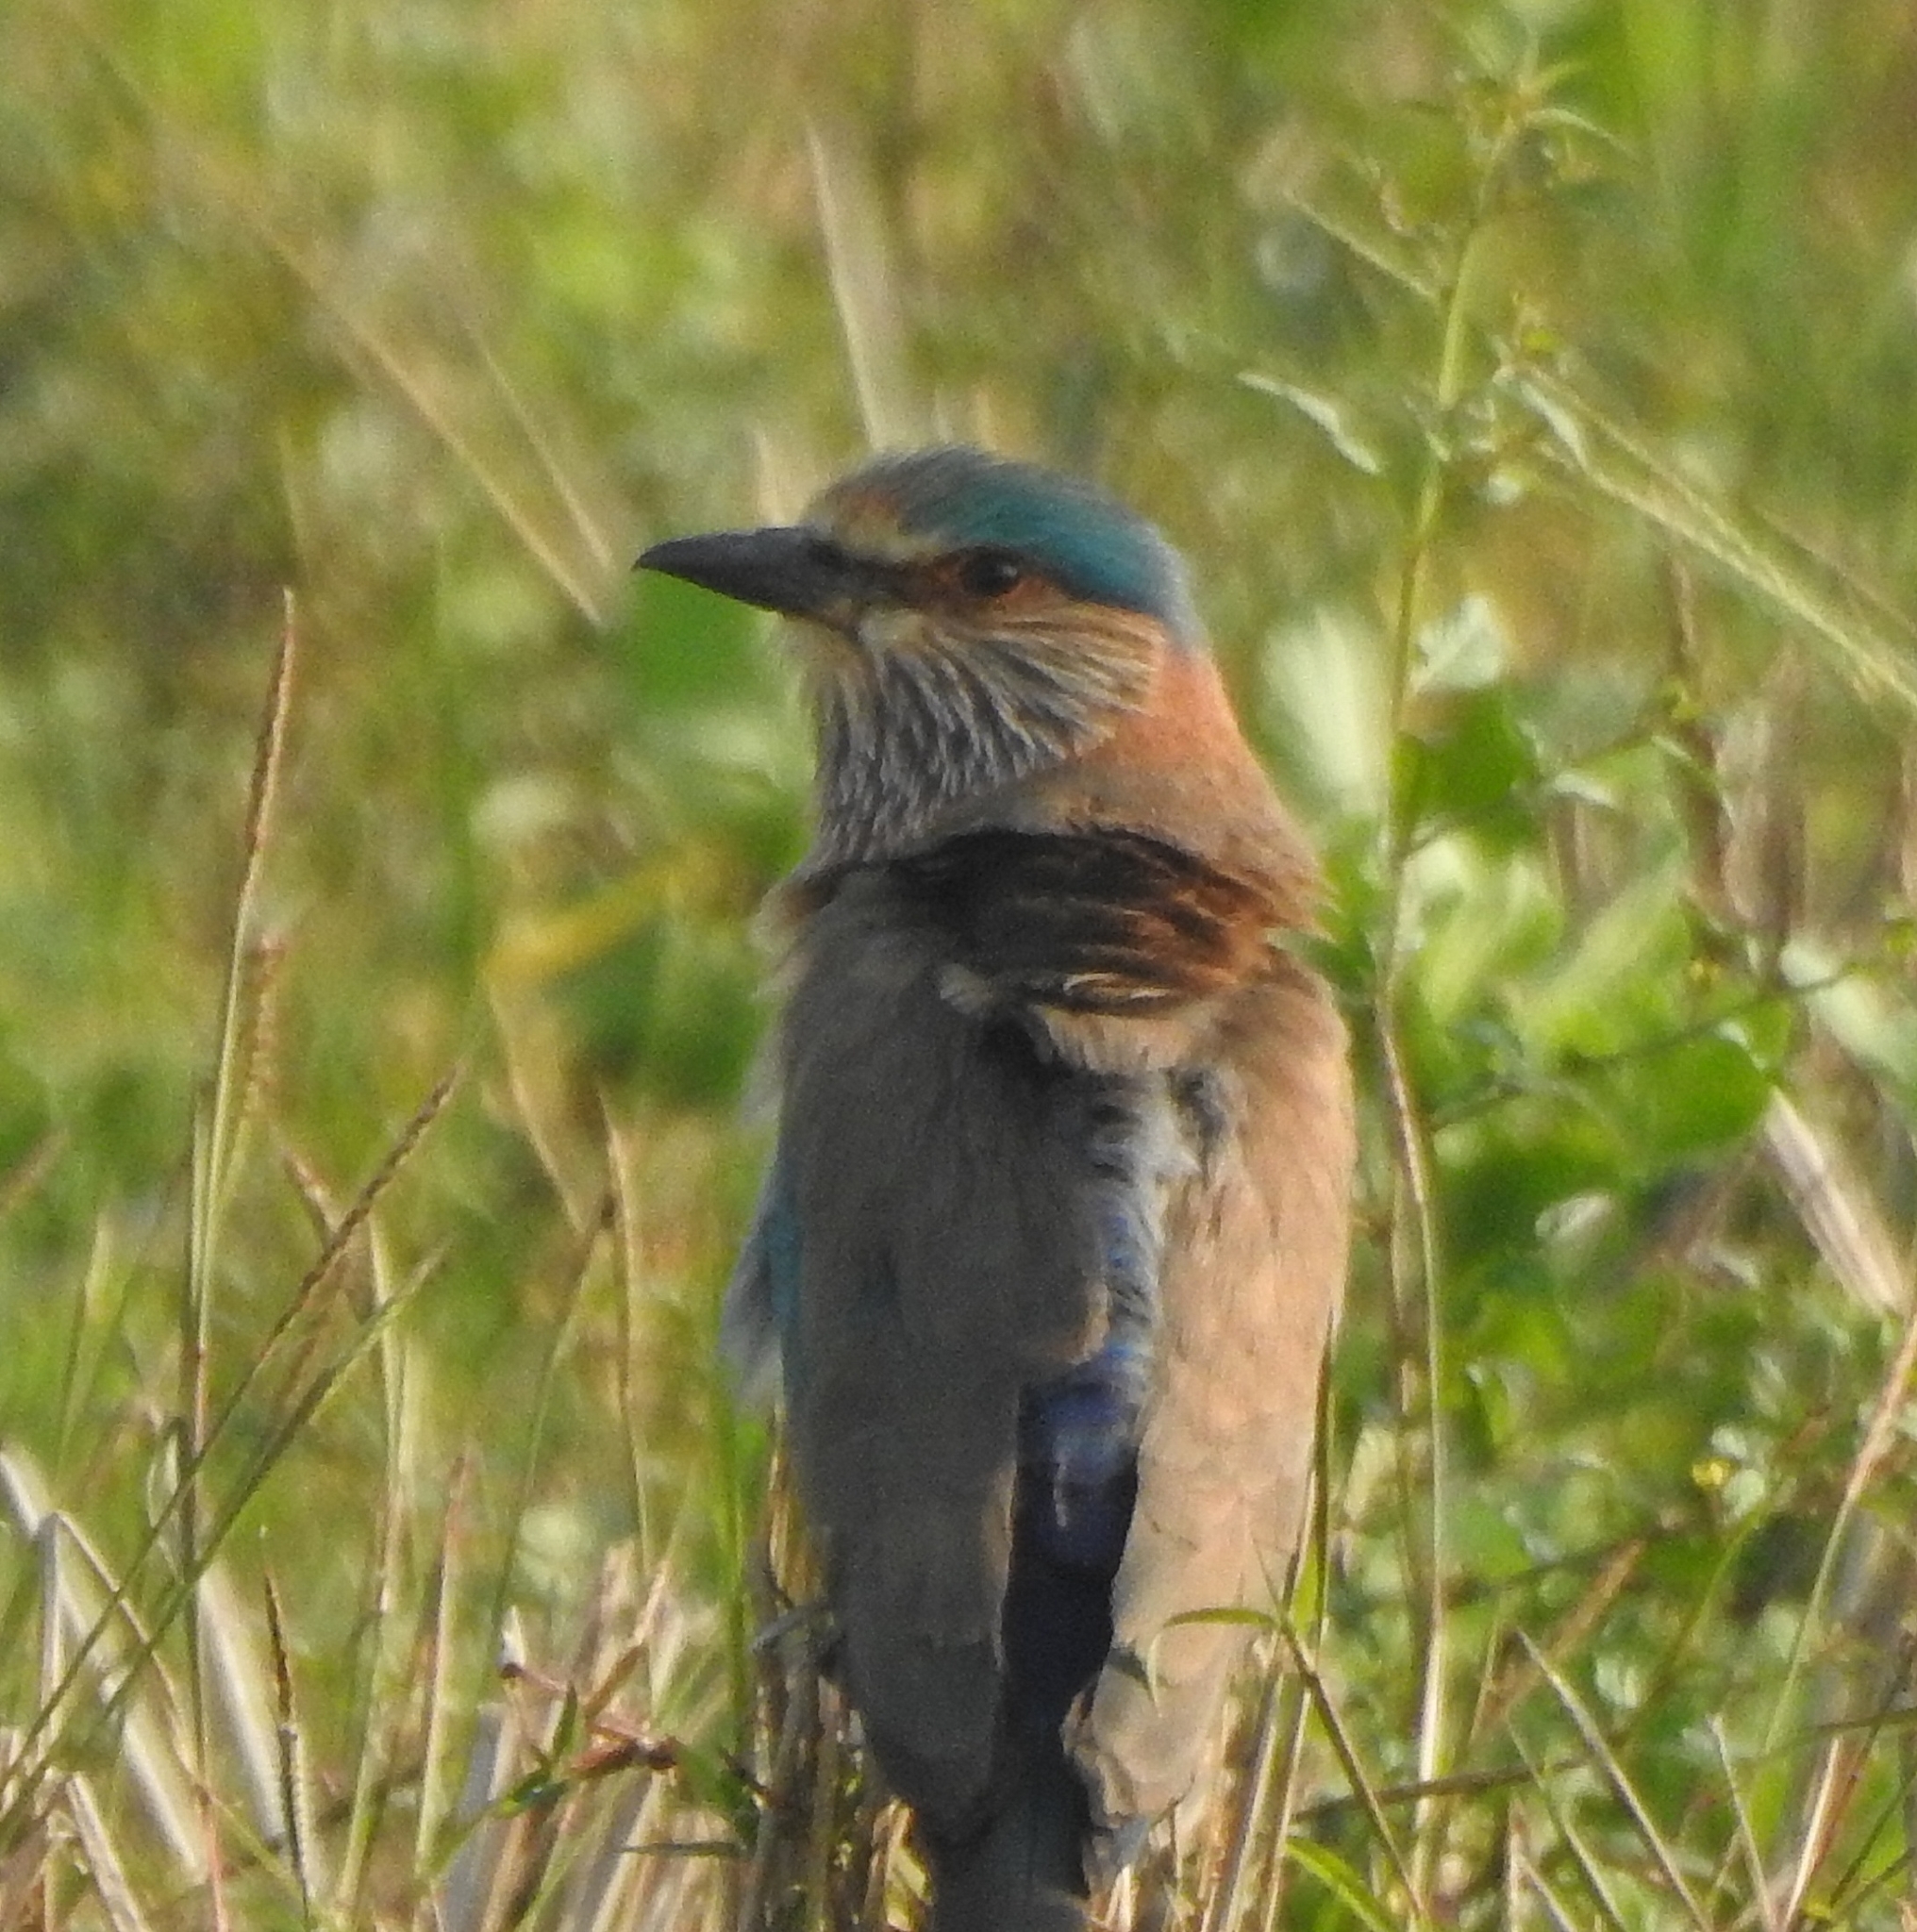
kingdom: Animalia
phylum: Chordata
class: Aves
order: Coraciiformes
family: Coraciidae
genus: Coracias
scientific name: Coracias benghalensis
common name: Indian roller
